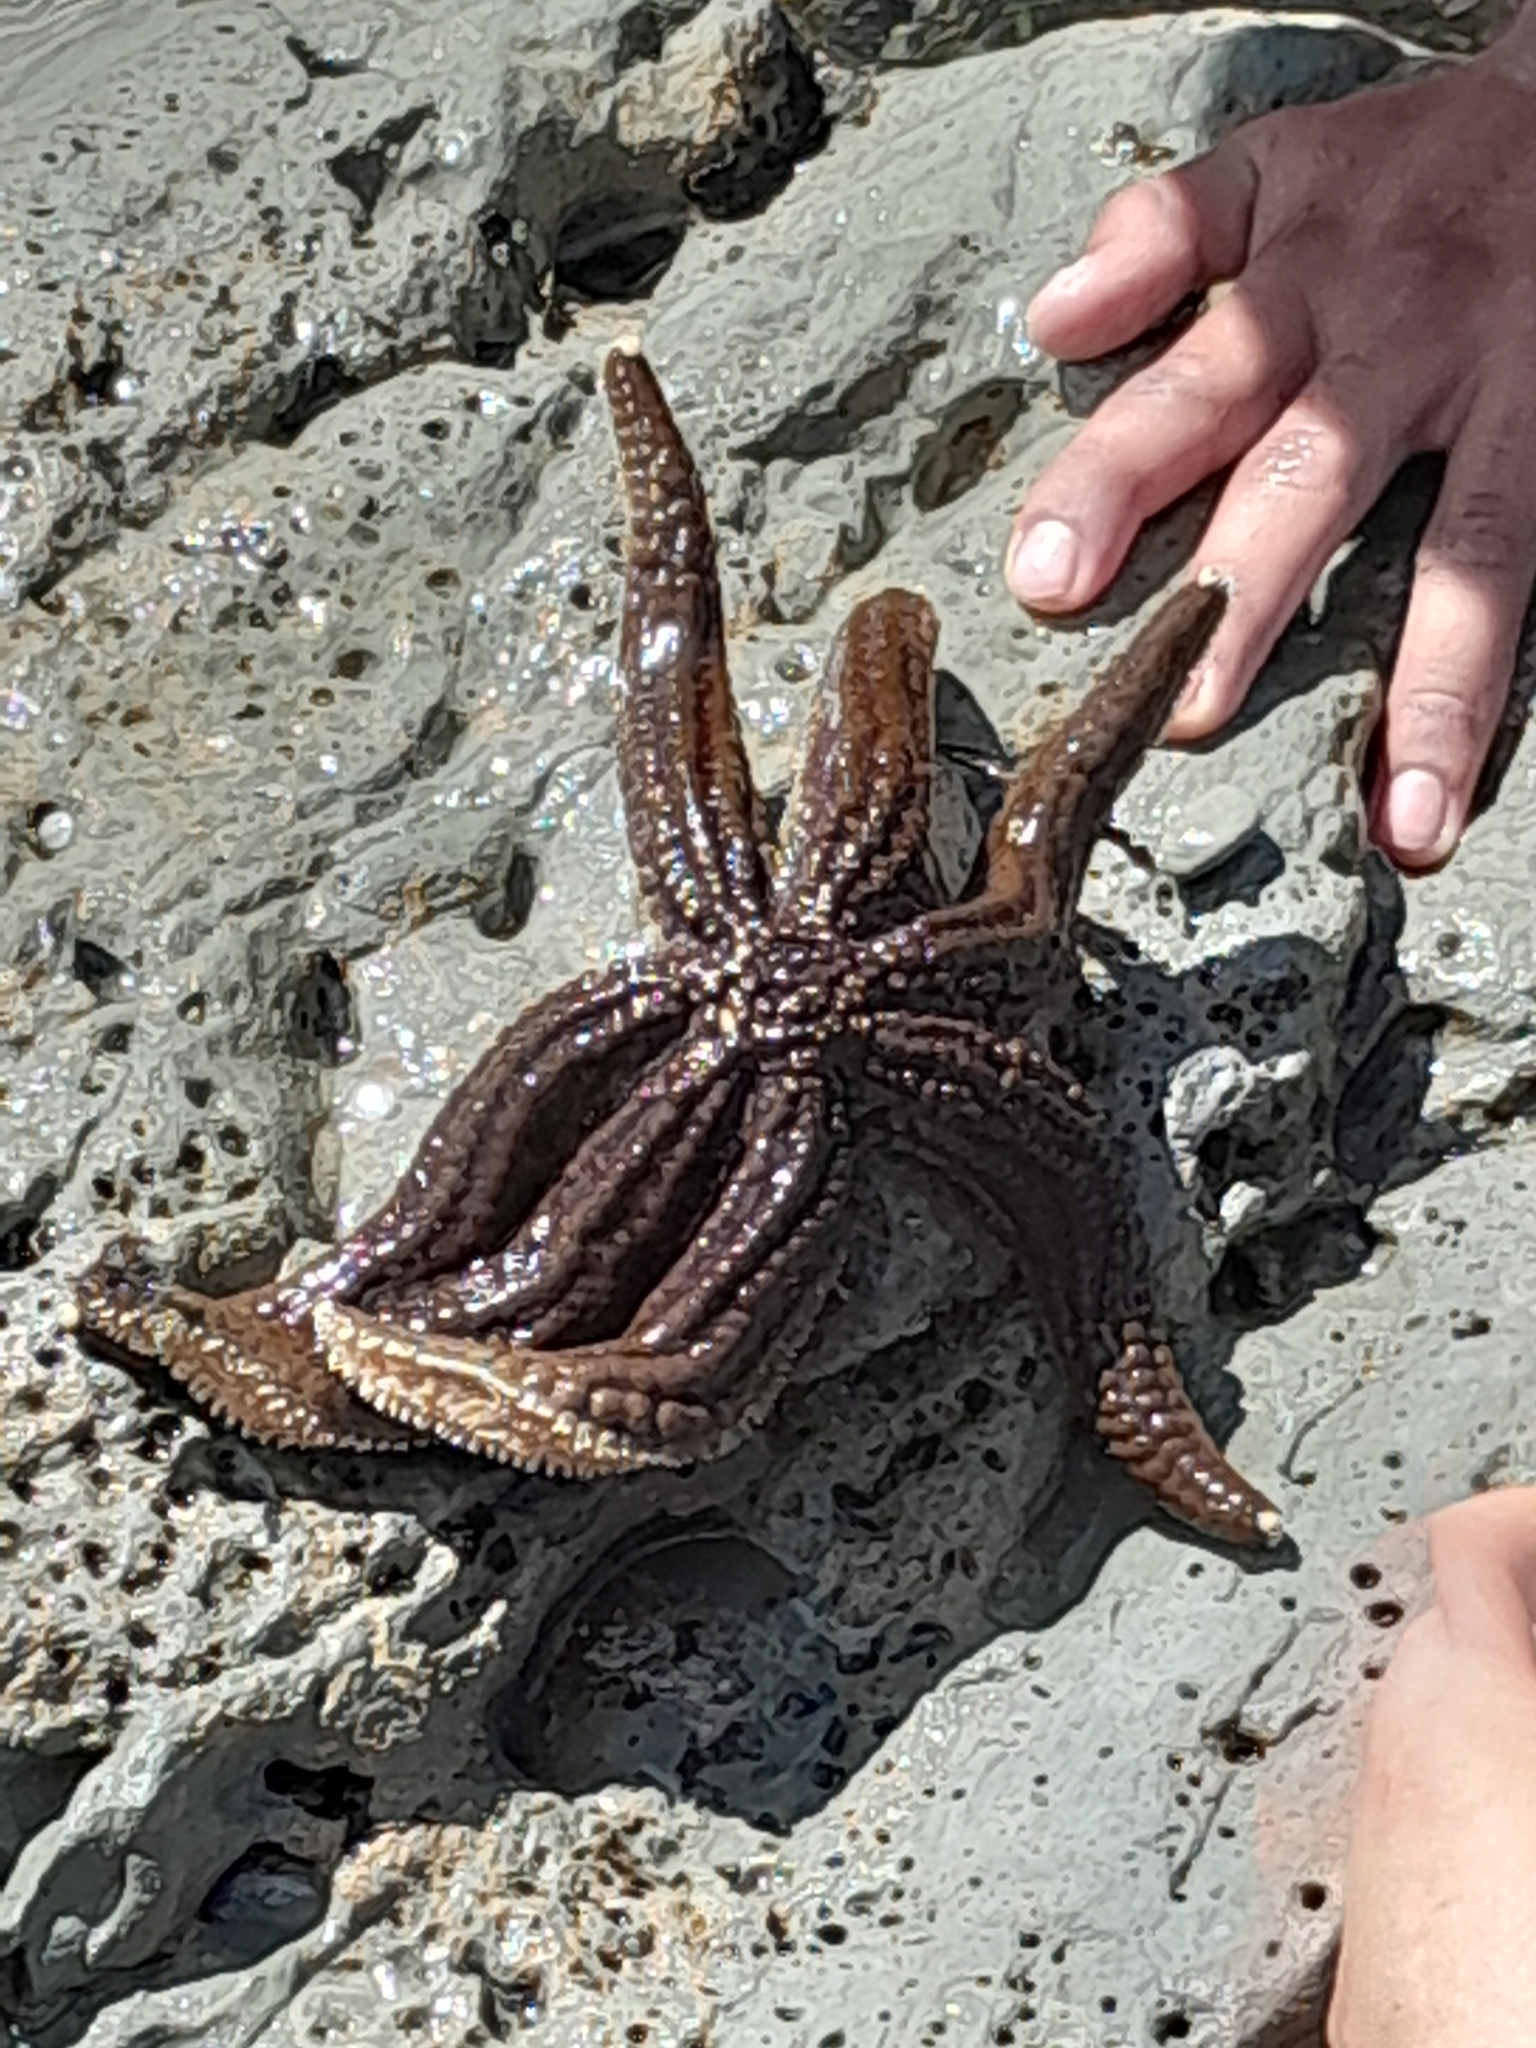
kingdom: Animalia
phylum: Echinodermata
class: Asteroidea
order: Forcipulatida
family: Asteriidae
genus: Astrostole
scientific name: Astrostole scabra
